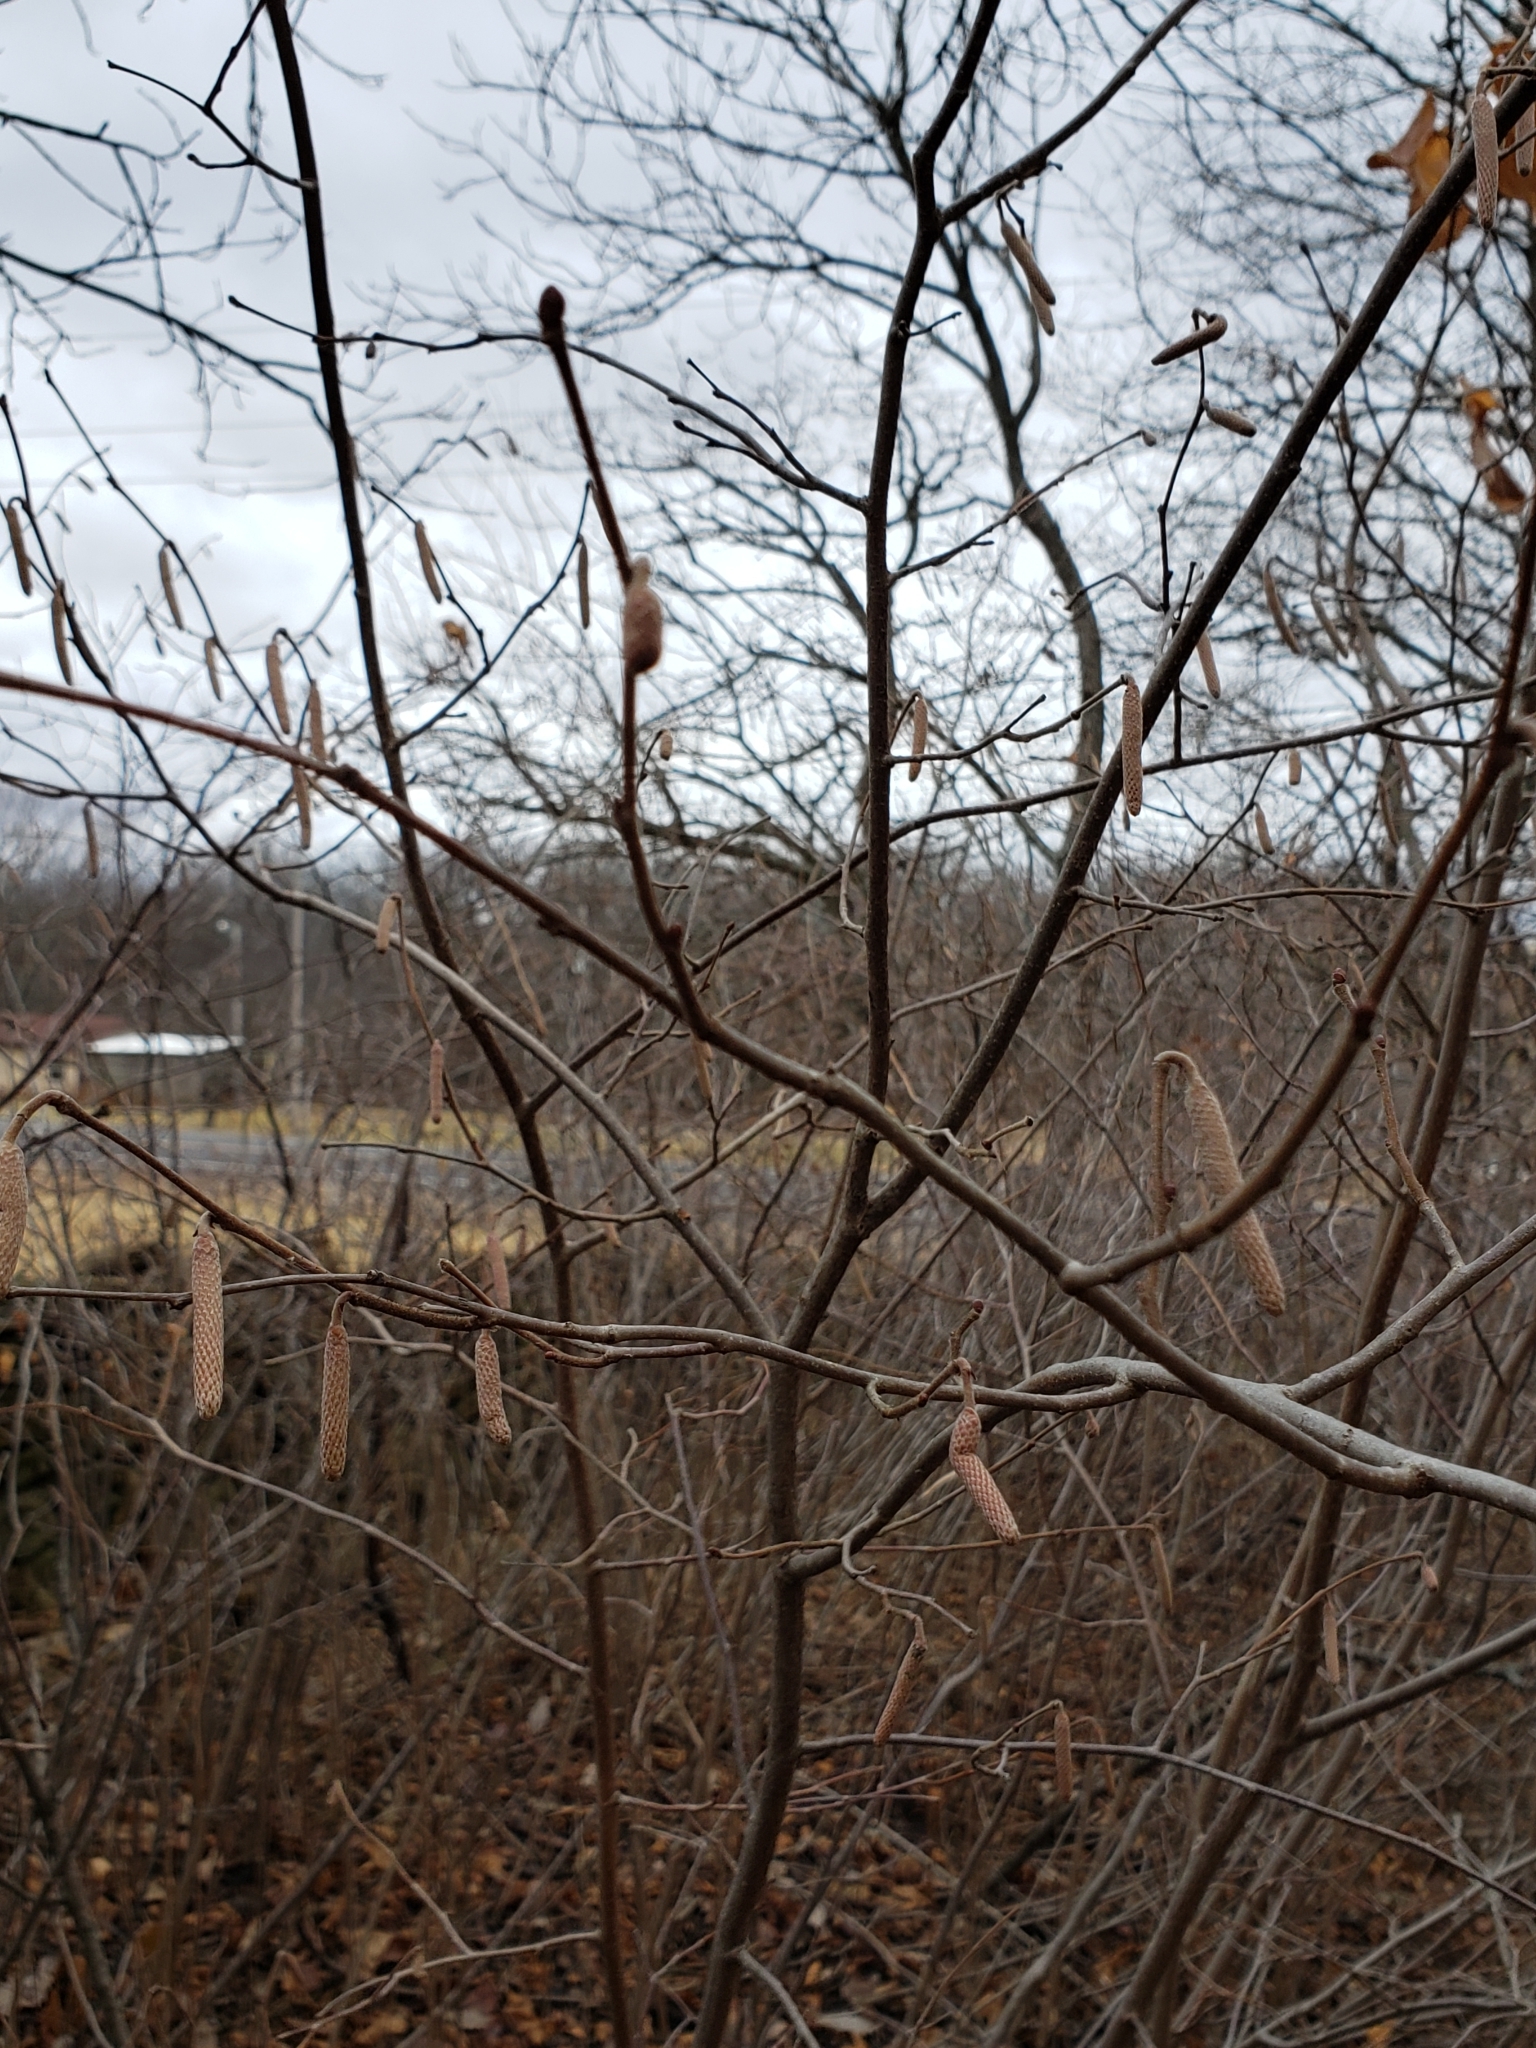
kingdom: Plantae
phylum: Tracheophyta
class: Magnoliopsida
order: Fagales
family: Betulaceae
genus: Corylus
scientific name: Corylus americana
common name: American hazel
